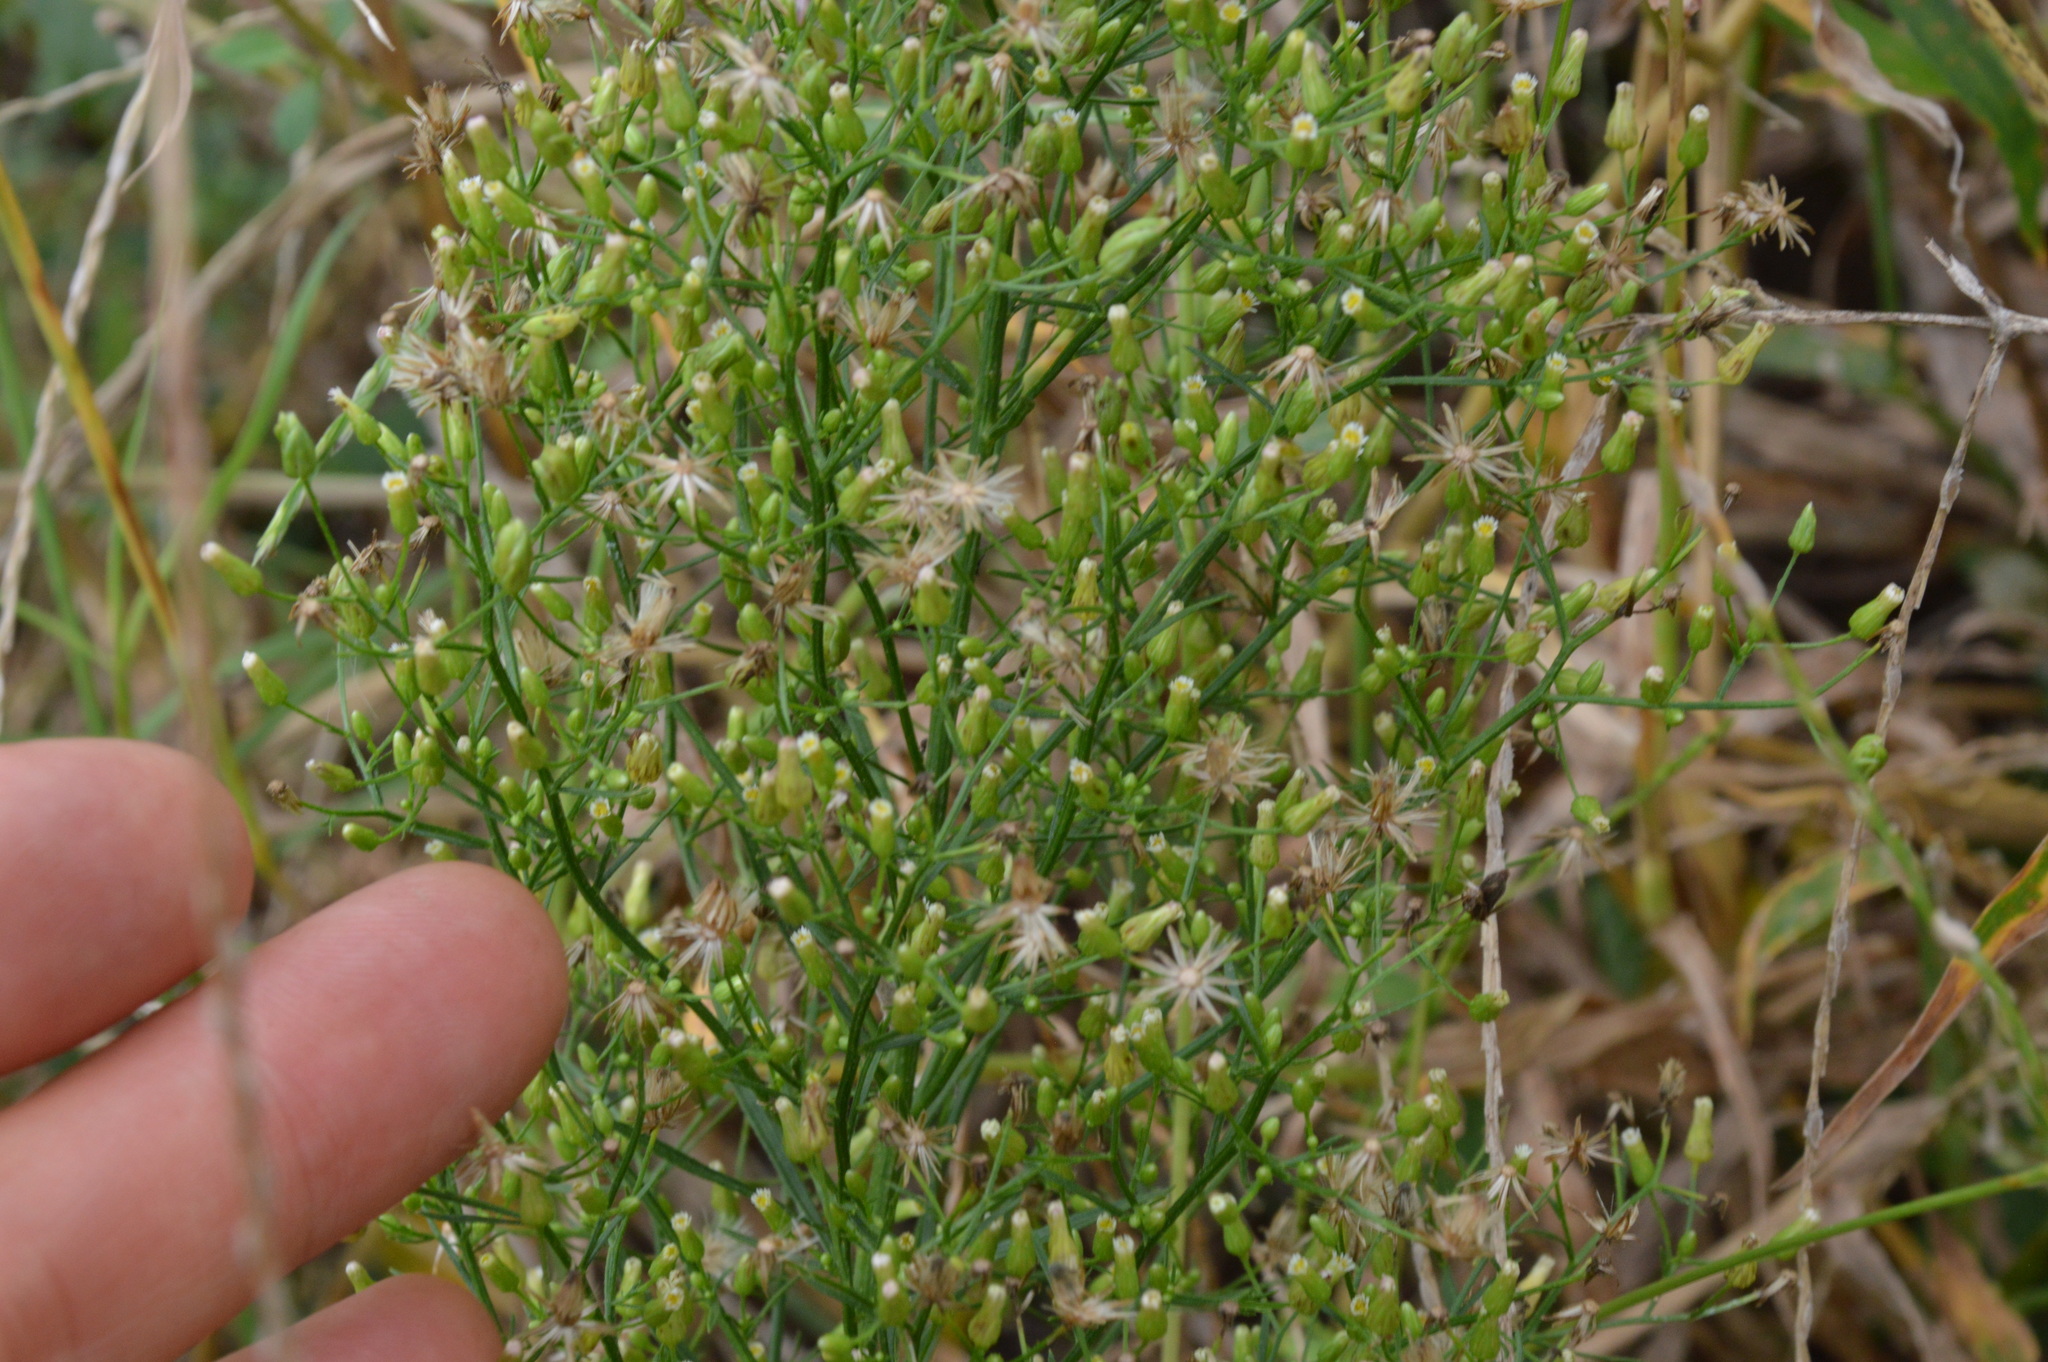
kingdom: Plantae
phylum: Tracheophyta
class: Magnoliopsida
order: Asterales
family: Asteraceae
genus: Erigeron
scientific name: Erigeron canadensis
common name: Canadian fleabane
